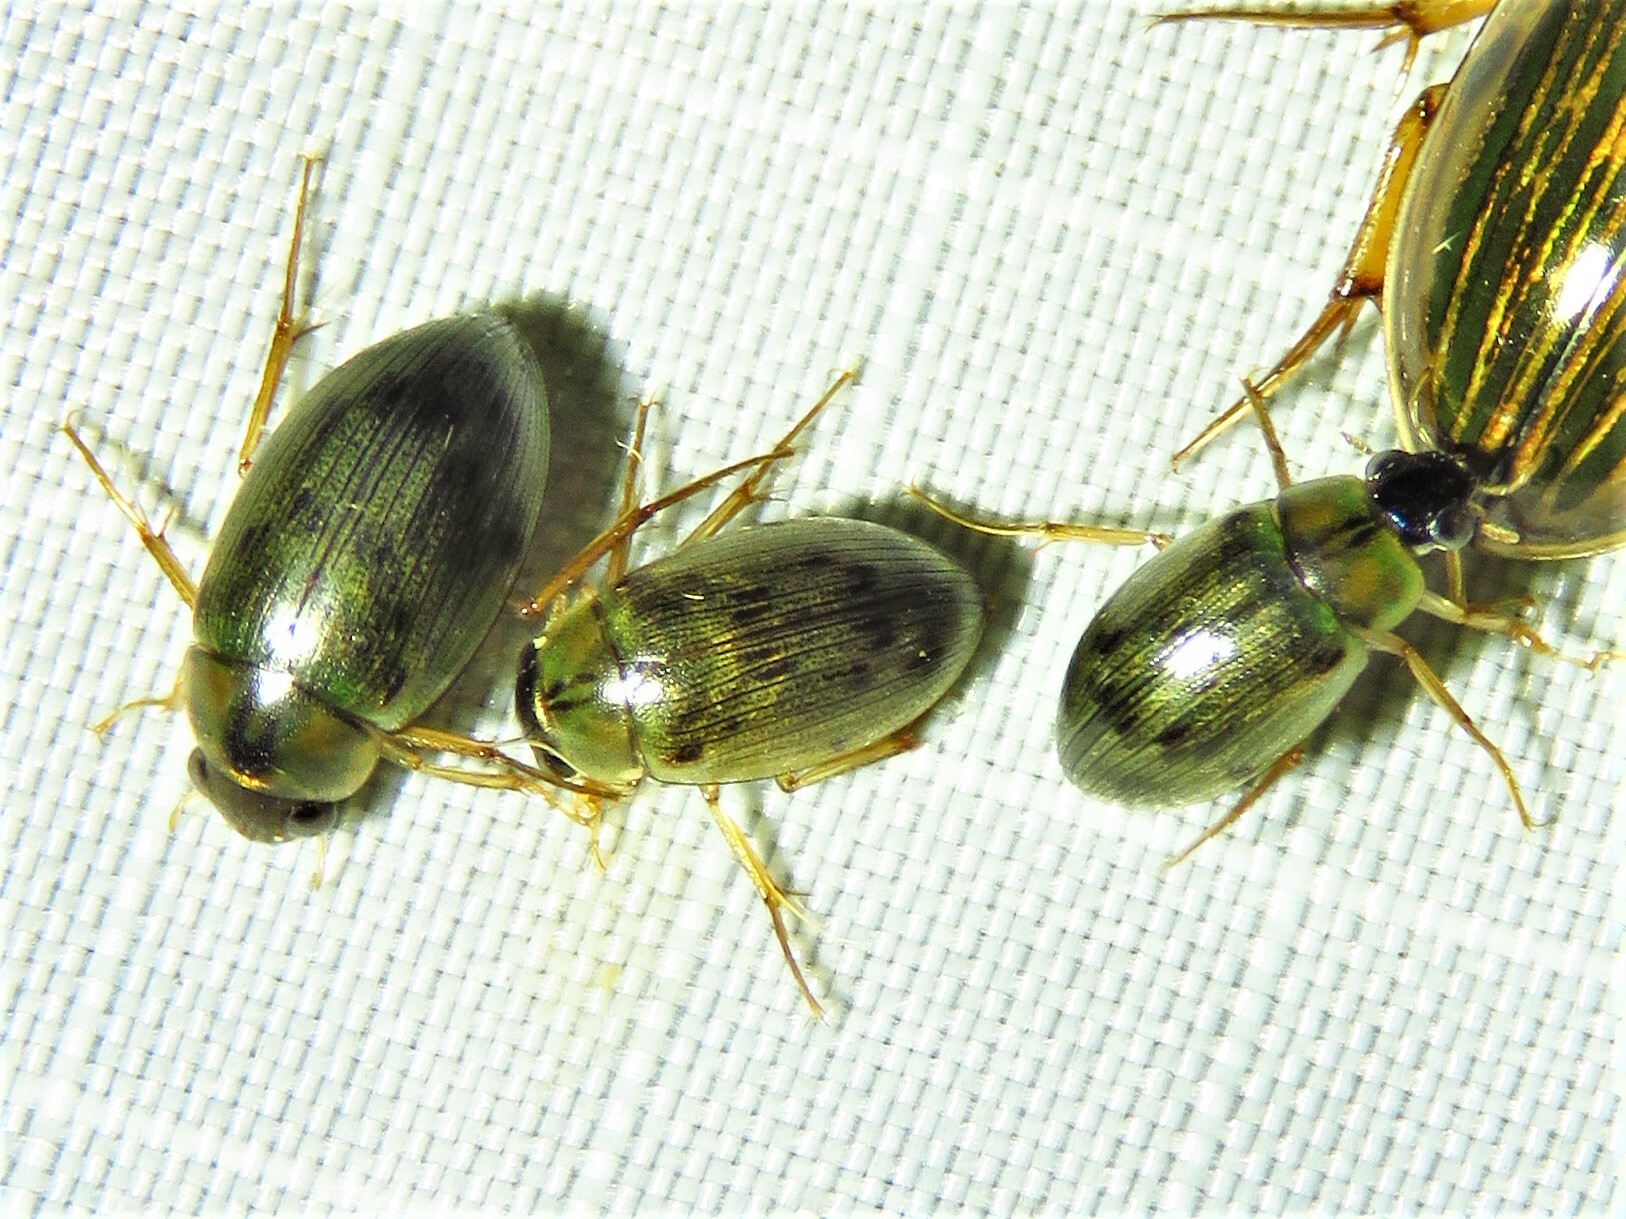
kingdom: Animalia
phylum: Arthropoda
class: Insecta
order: Coleoptera
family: Hydrophilidae
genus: Berosus
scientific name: Berosus
